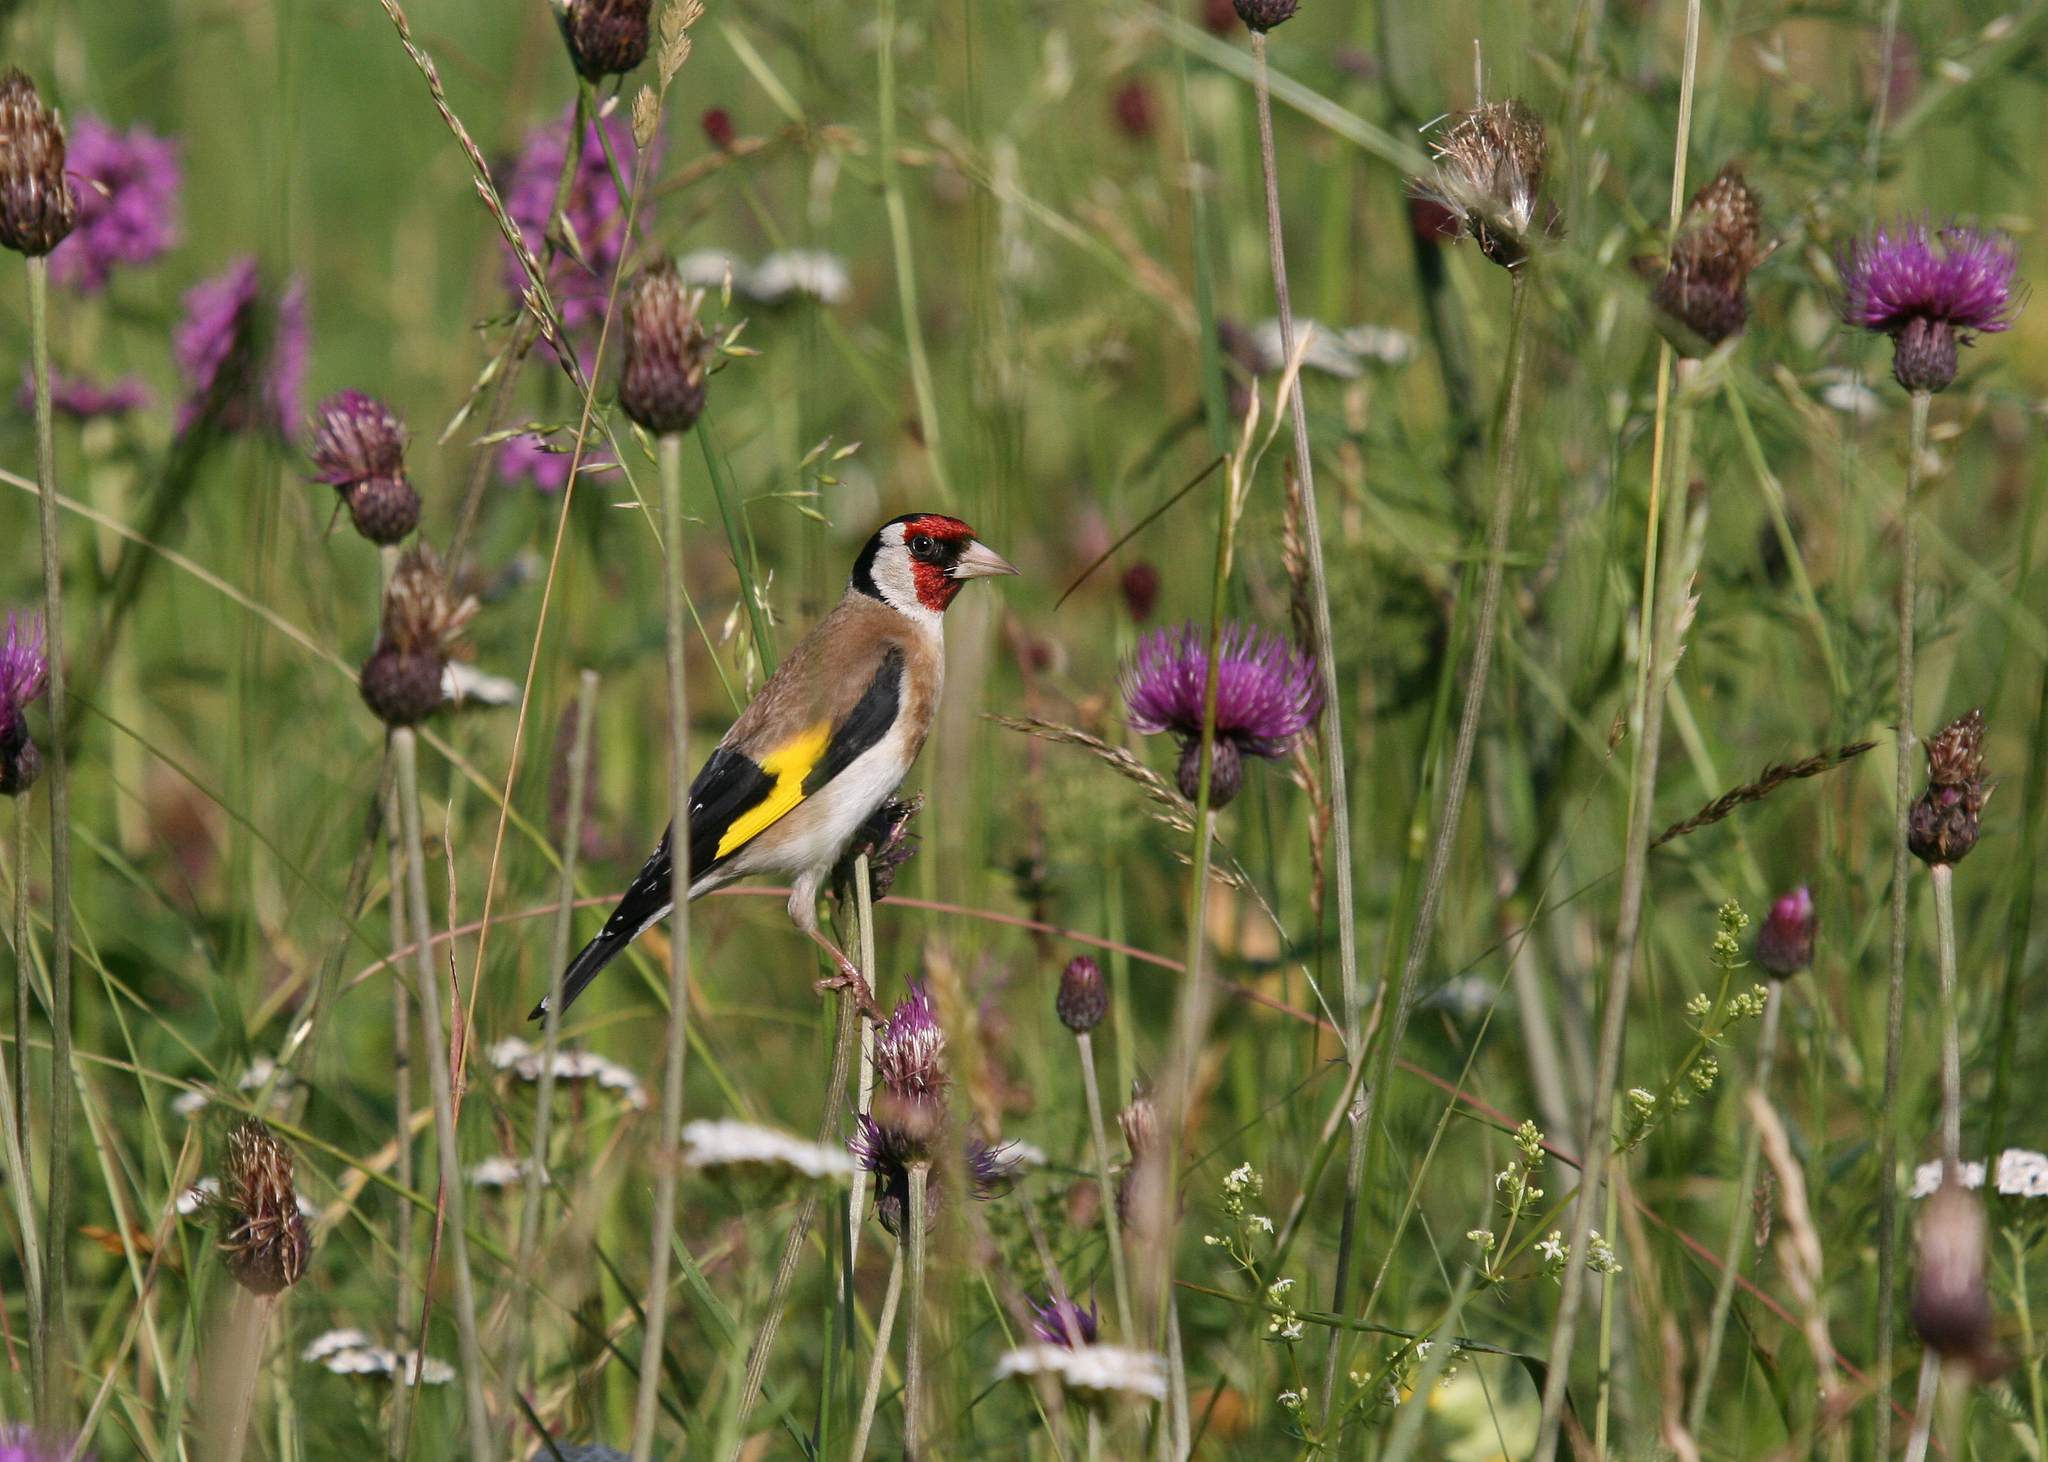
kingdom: Animalia
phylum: Chordata
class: Aves
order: Passeriformes
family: Fringillidae
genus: Carduelis
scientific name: Carduelis carduelis
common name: European goldfinch
